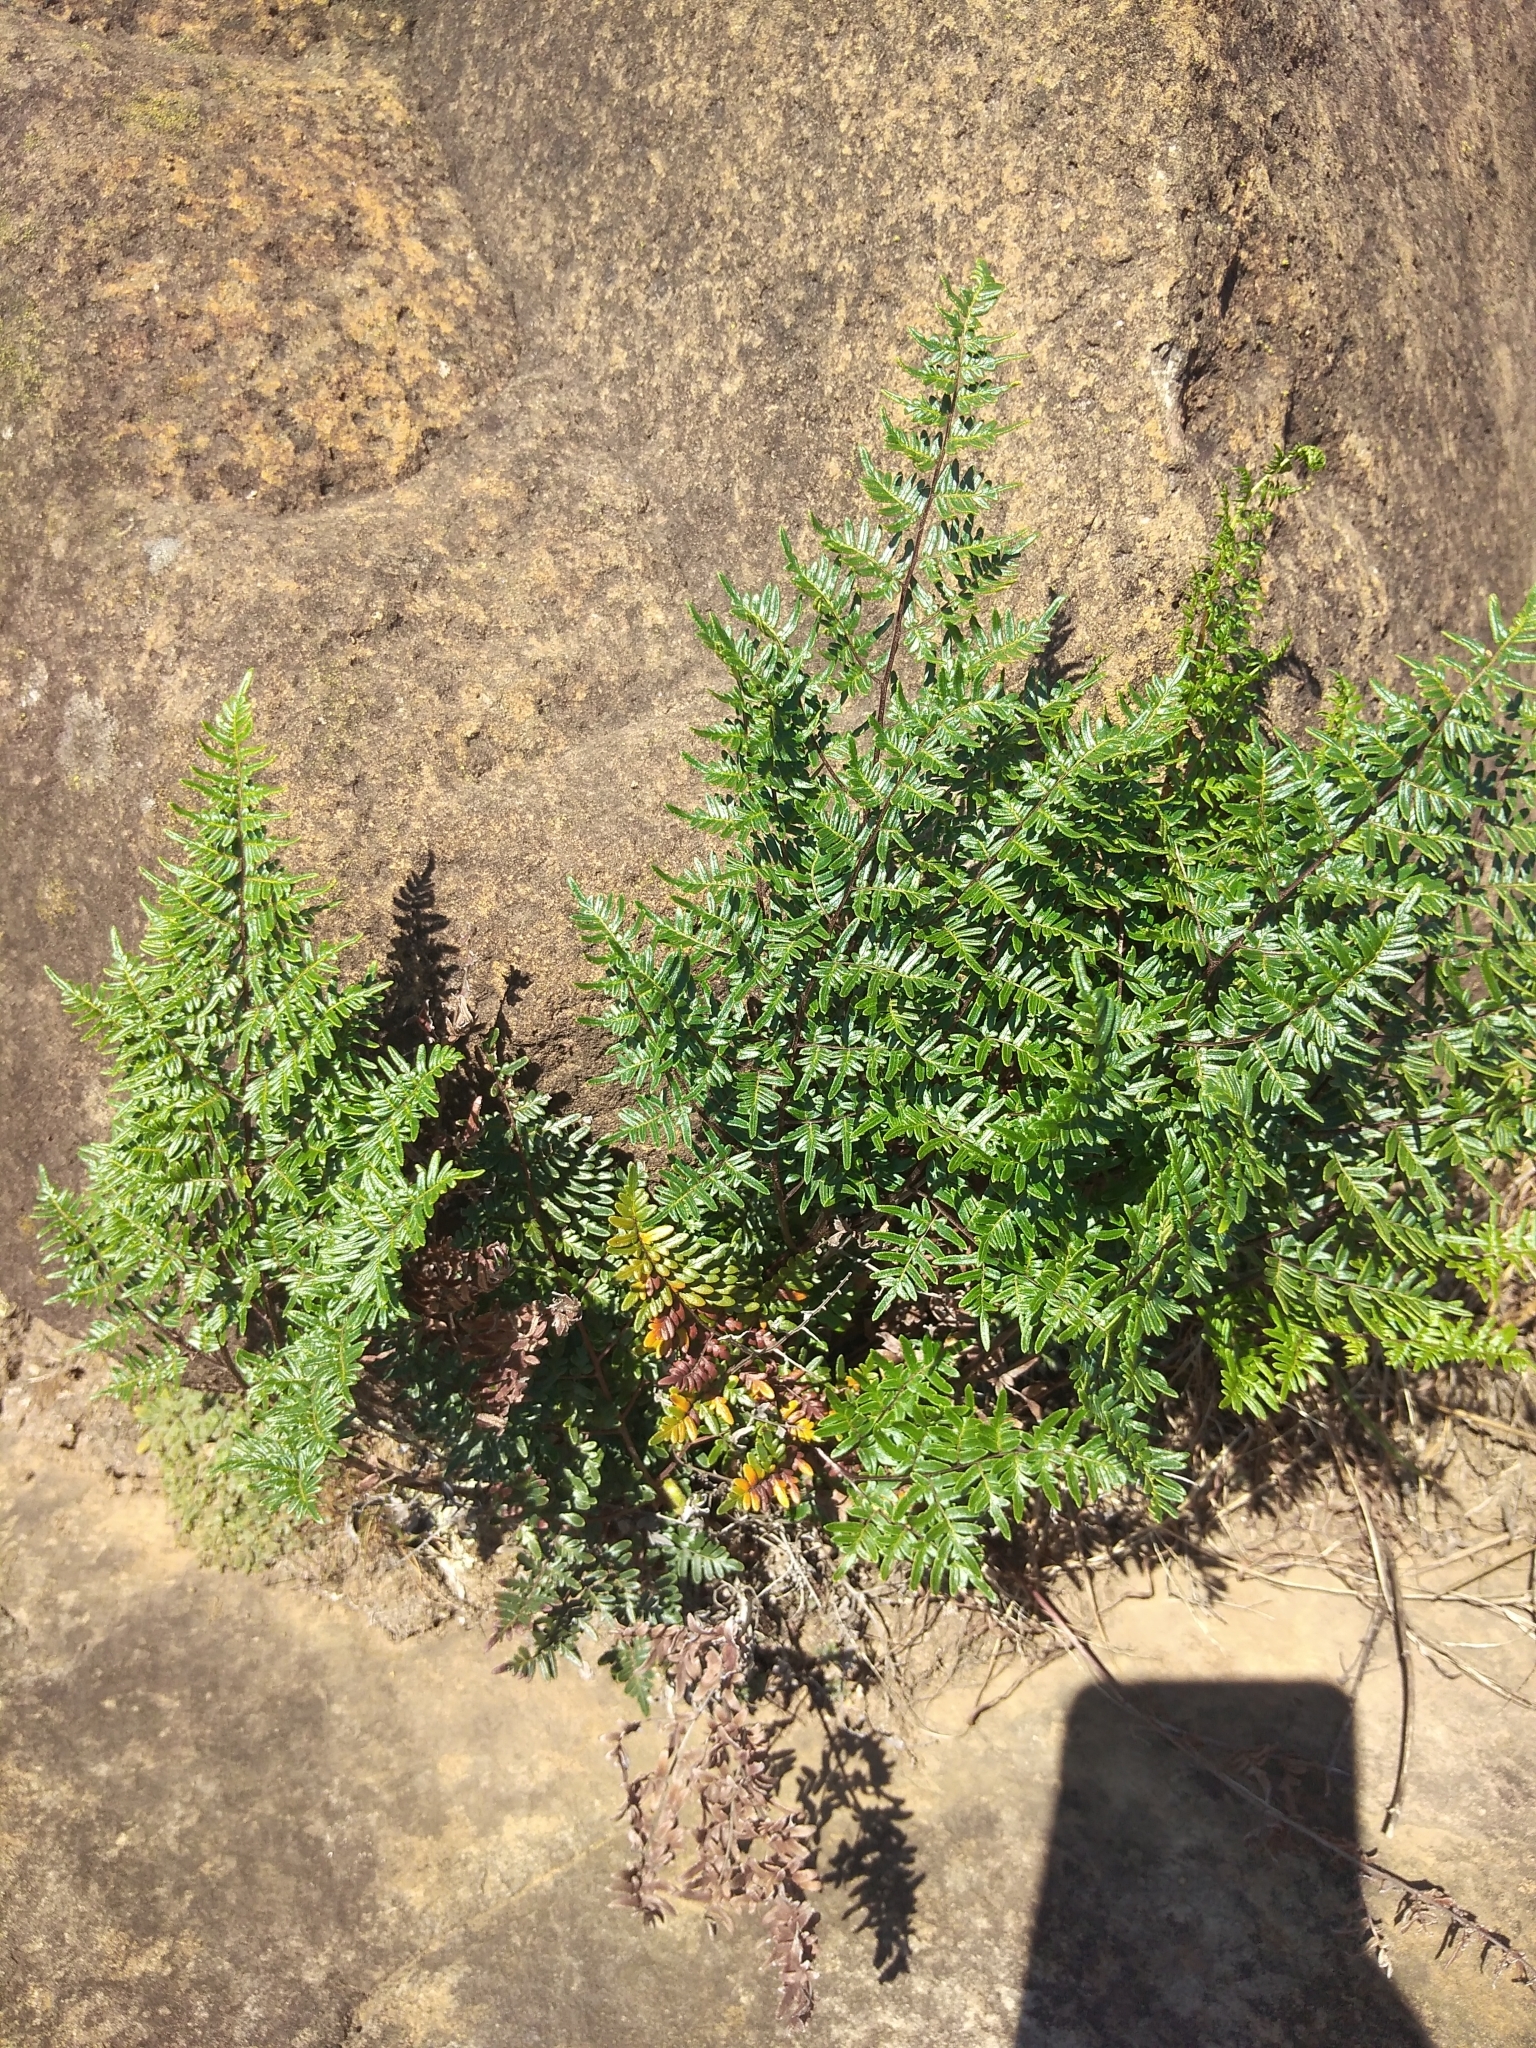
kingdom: Plantae
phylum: Tracheophyta
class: Polypodiopsida
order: Polypodiales
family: Pteridaceae
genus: Cheilanthes
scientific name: Cheilanthes quadripinnata
